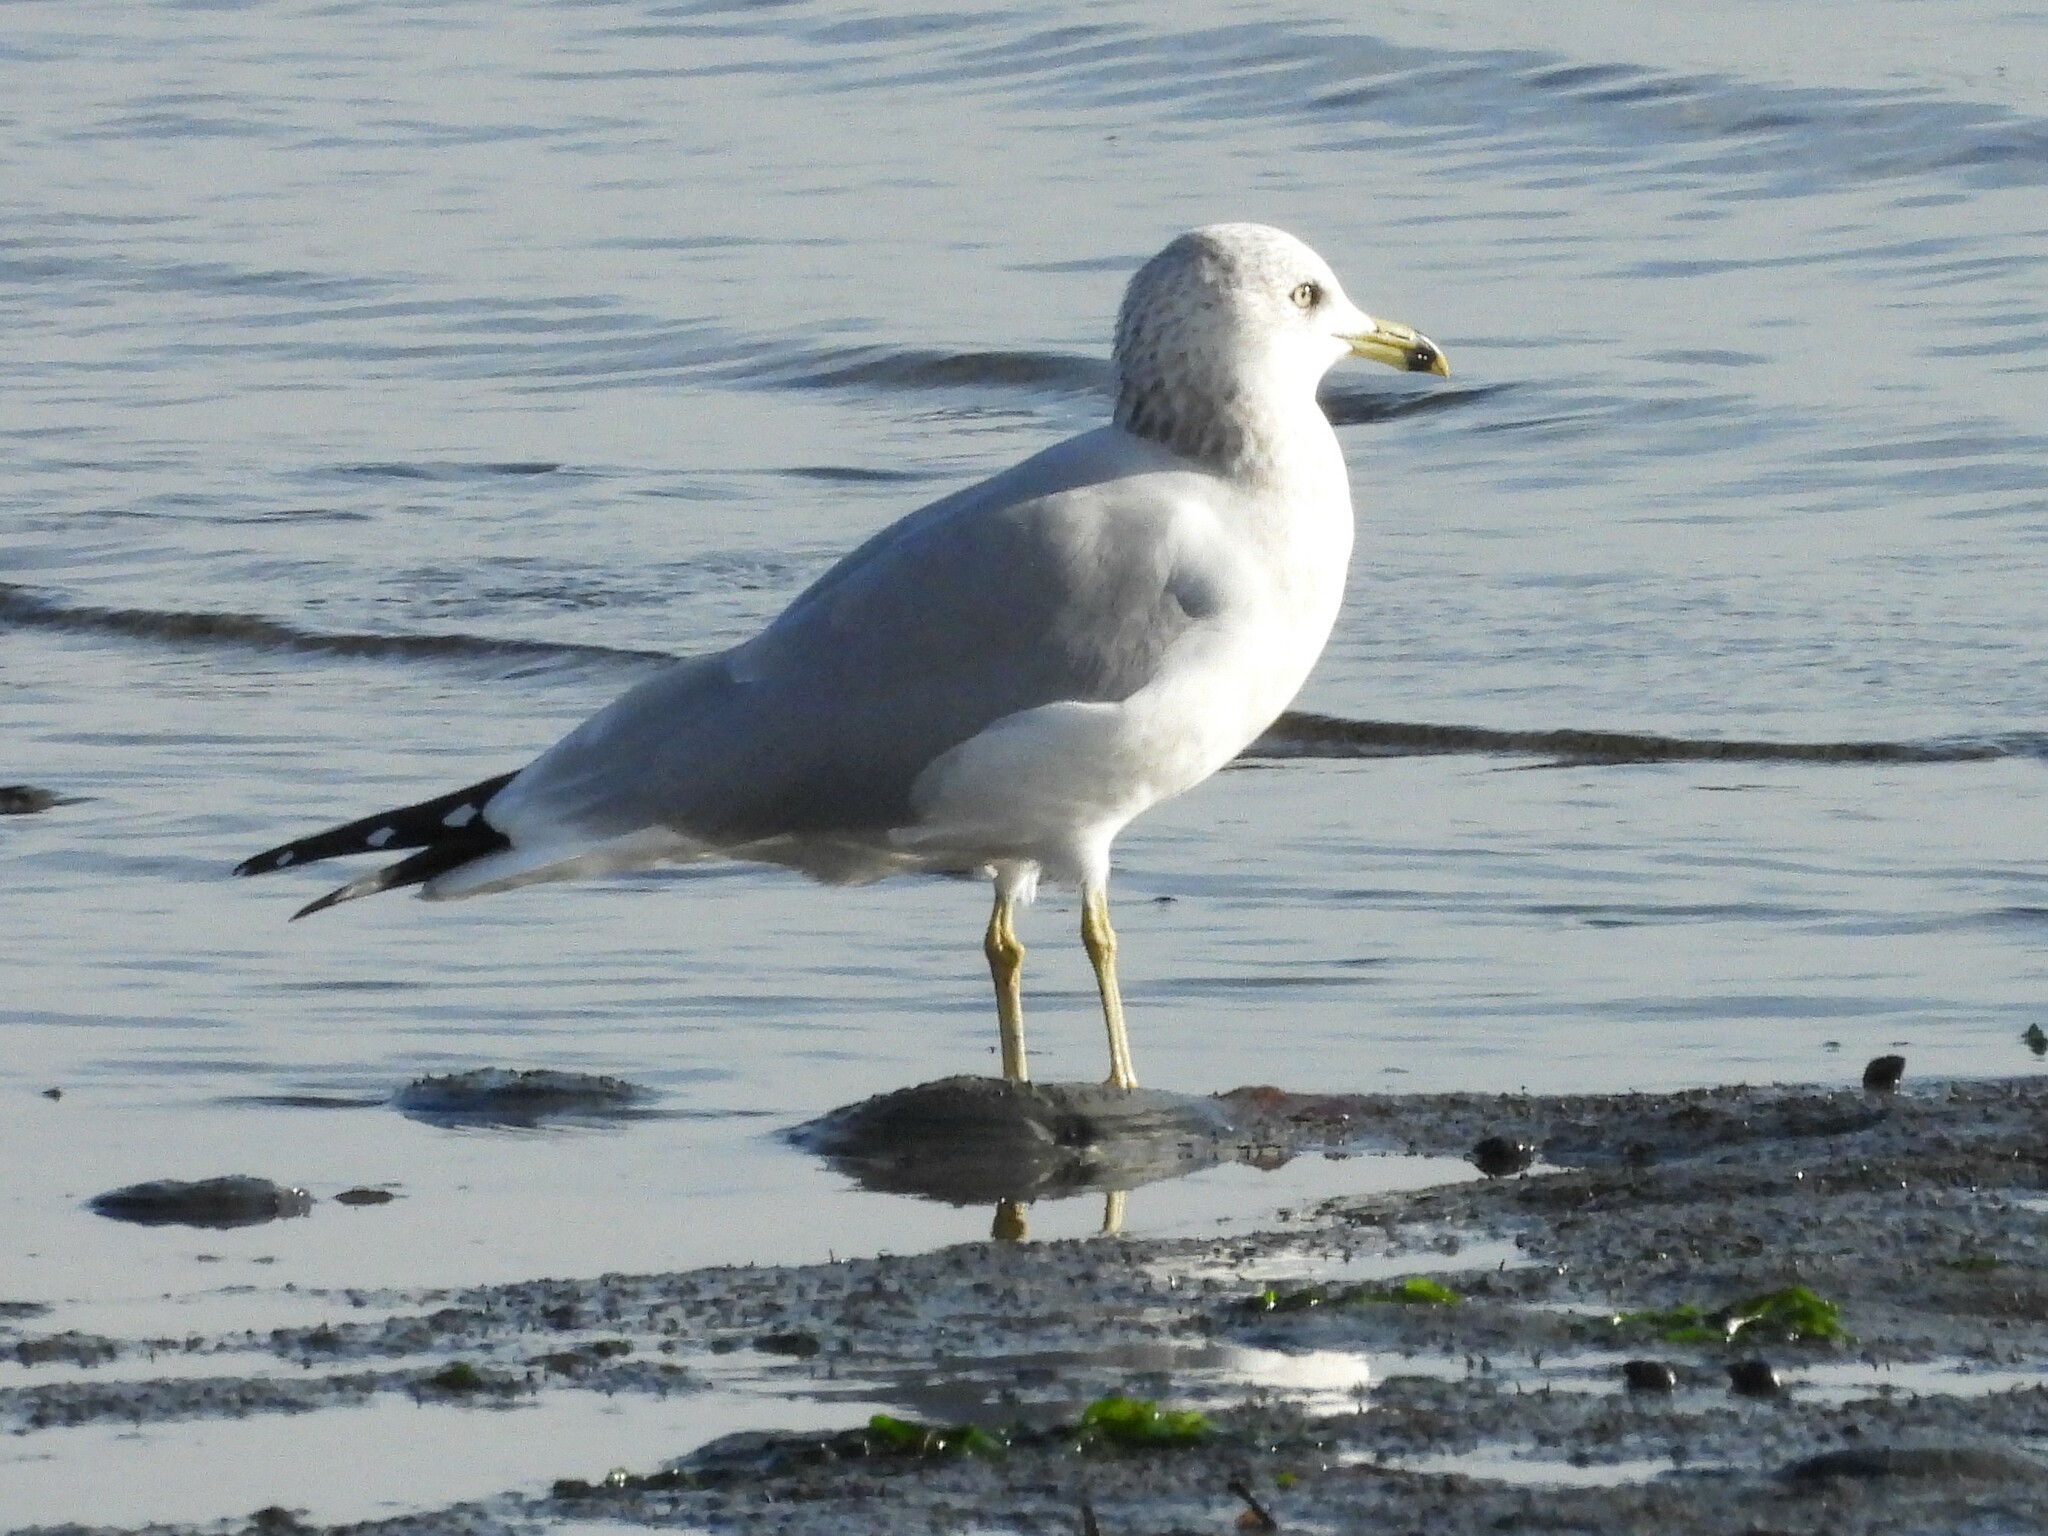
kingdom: Animalia
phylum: Chordata
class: Aves
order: Charadriiformes
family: Laridae
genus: Larus
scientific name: Larus delawarensis
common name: Ring-billed gull
